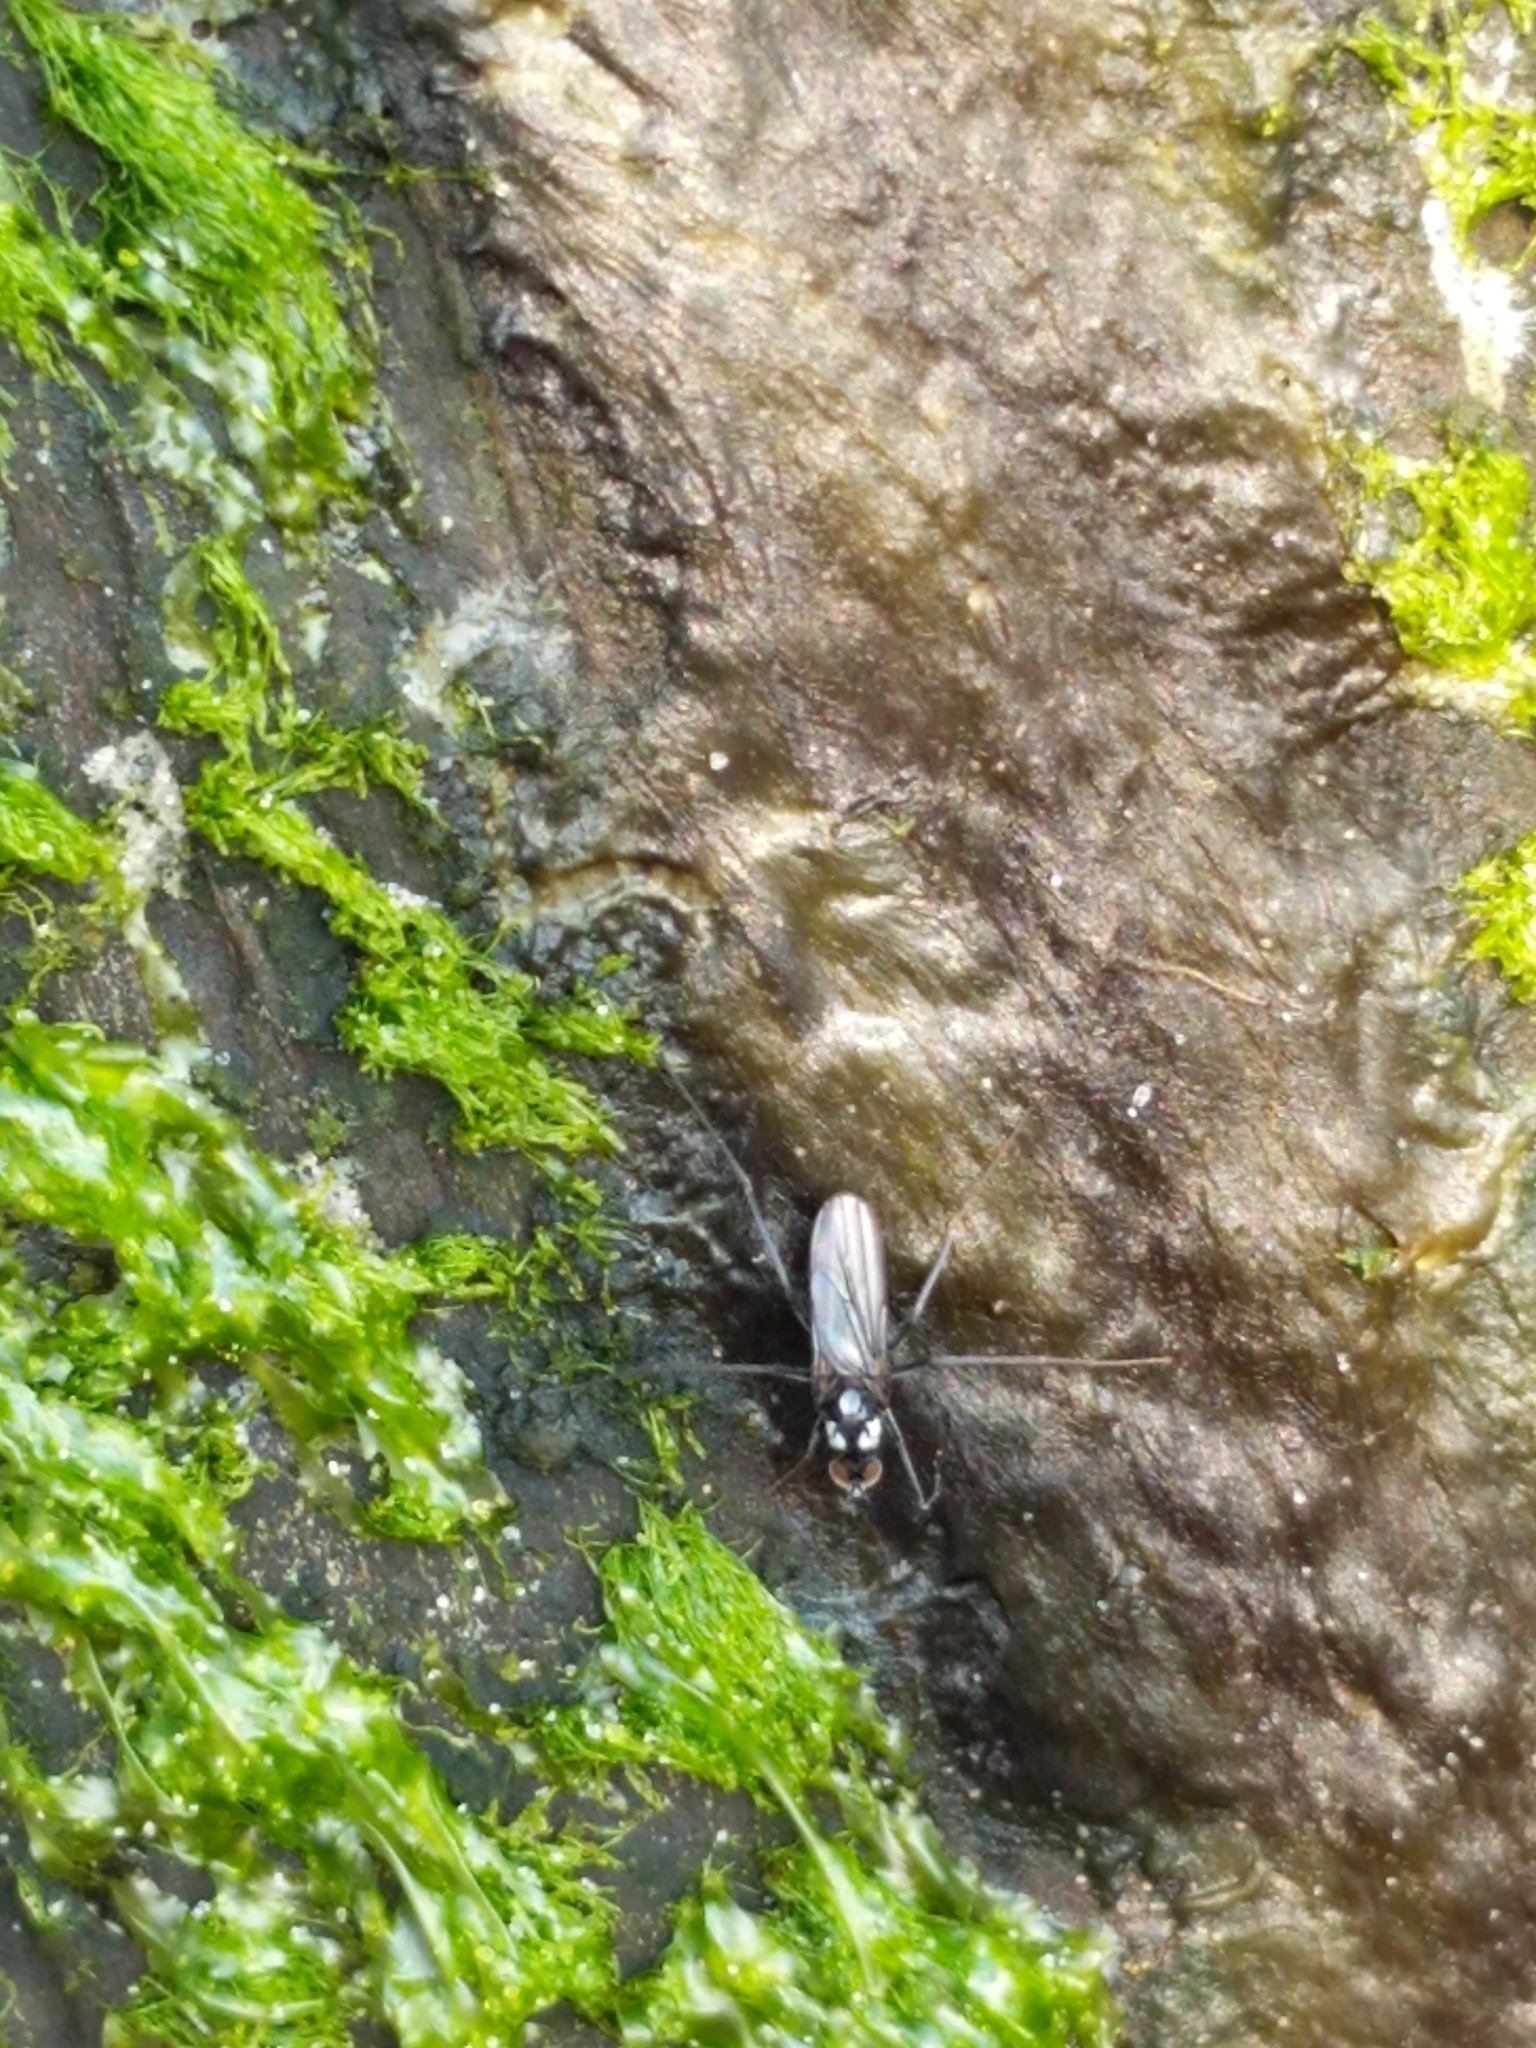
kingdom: Animalia
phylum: Arthropoda
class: Insecta
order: Diptera
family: Dolichopodidae
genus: Thambemyia
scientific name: Thambemyia borealis
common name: Fly
